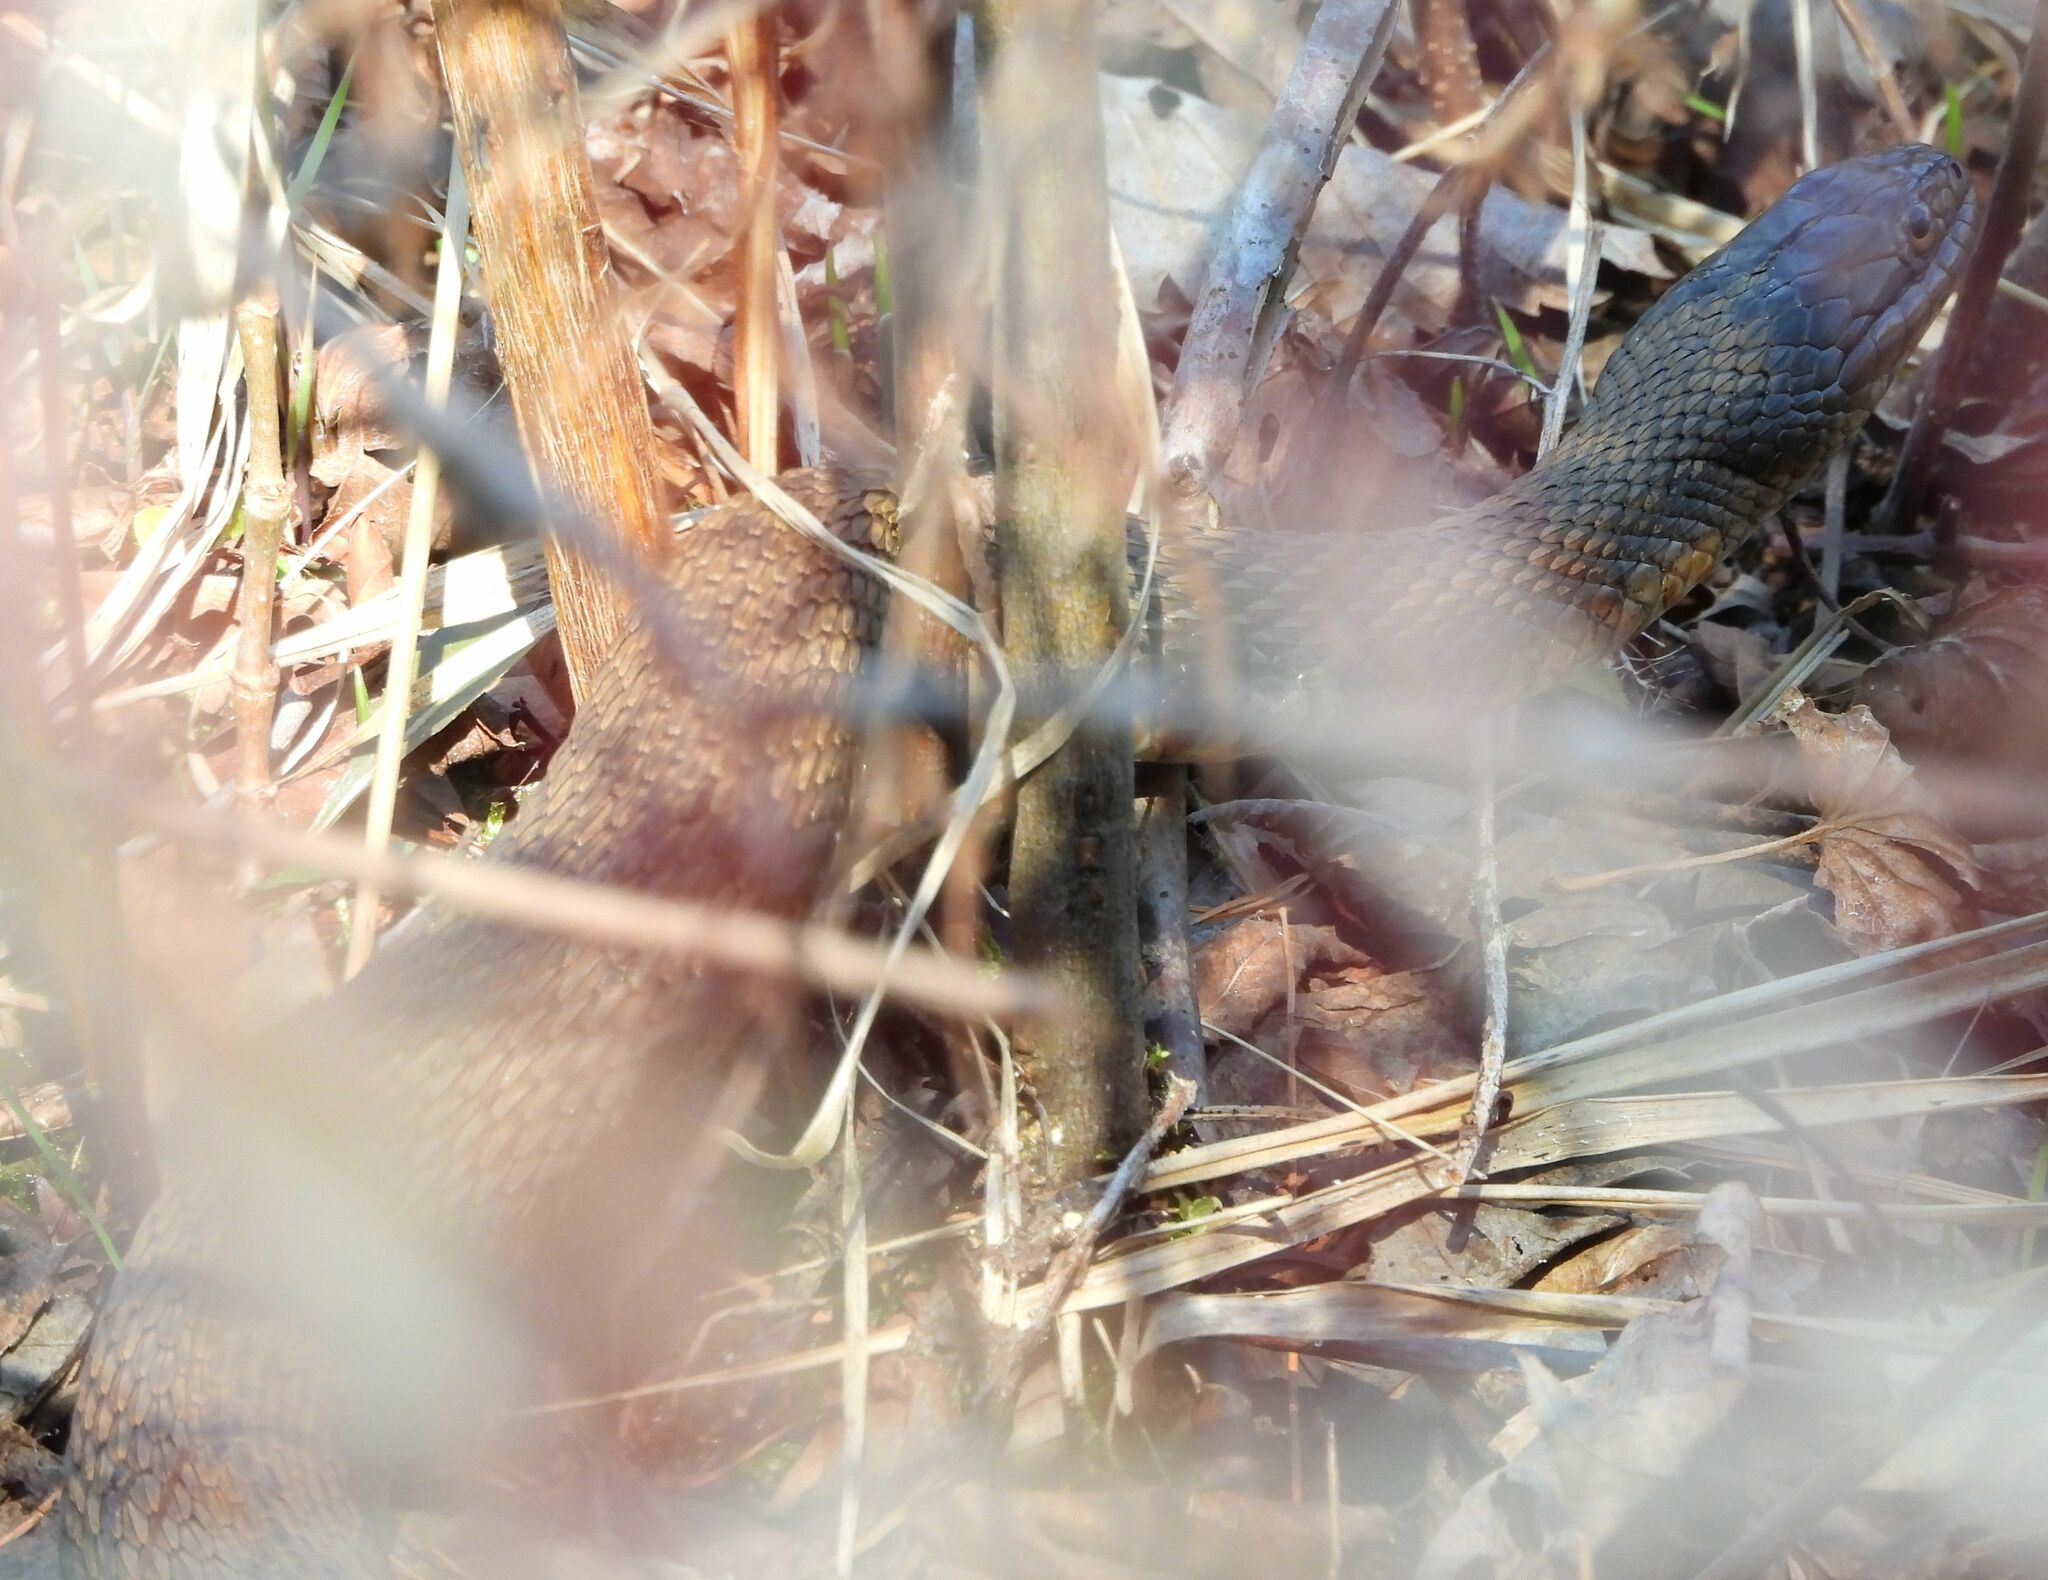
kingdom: Animalia
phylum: Chordata
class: Squamata
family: Colubridae
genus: Nerodia
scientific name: Nerodia sipedon
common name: Northern water snake
